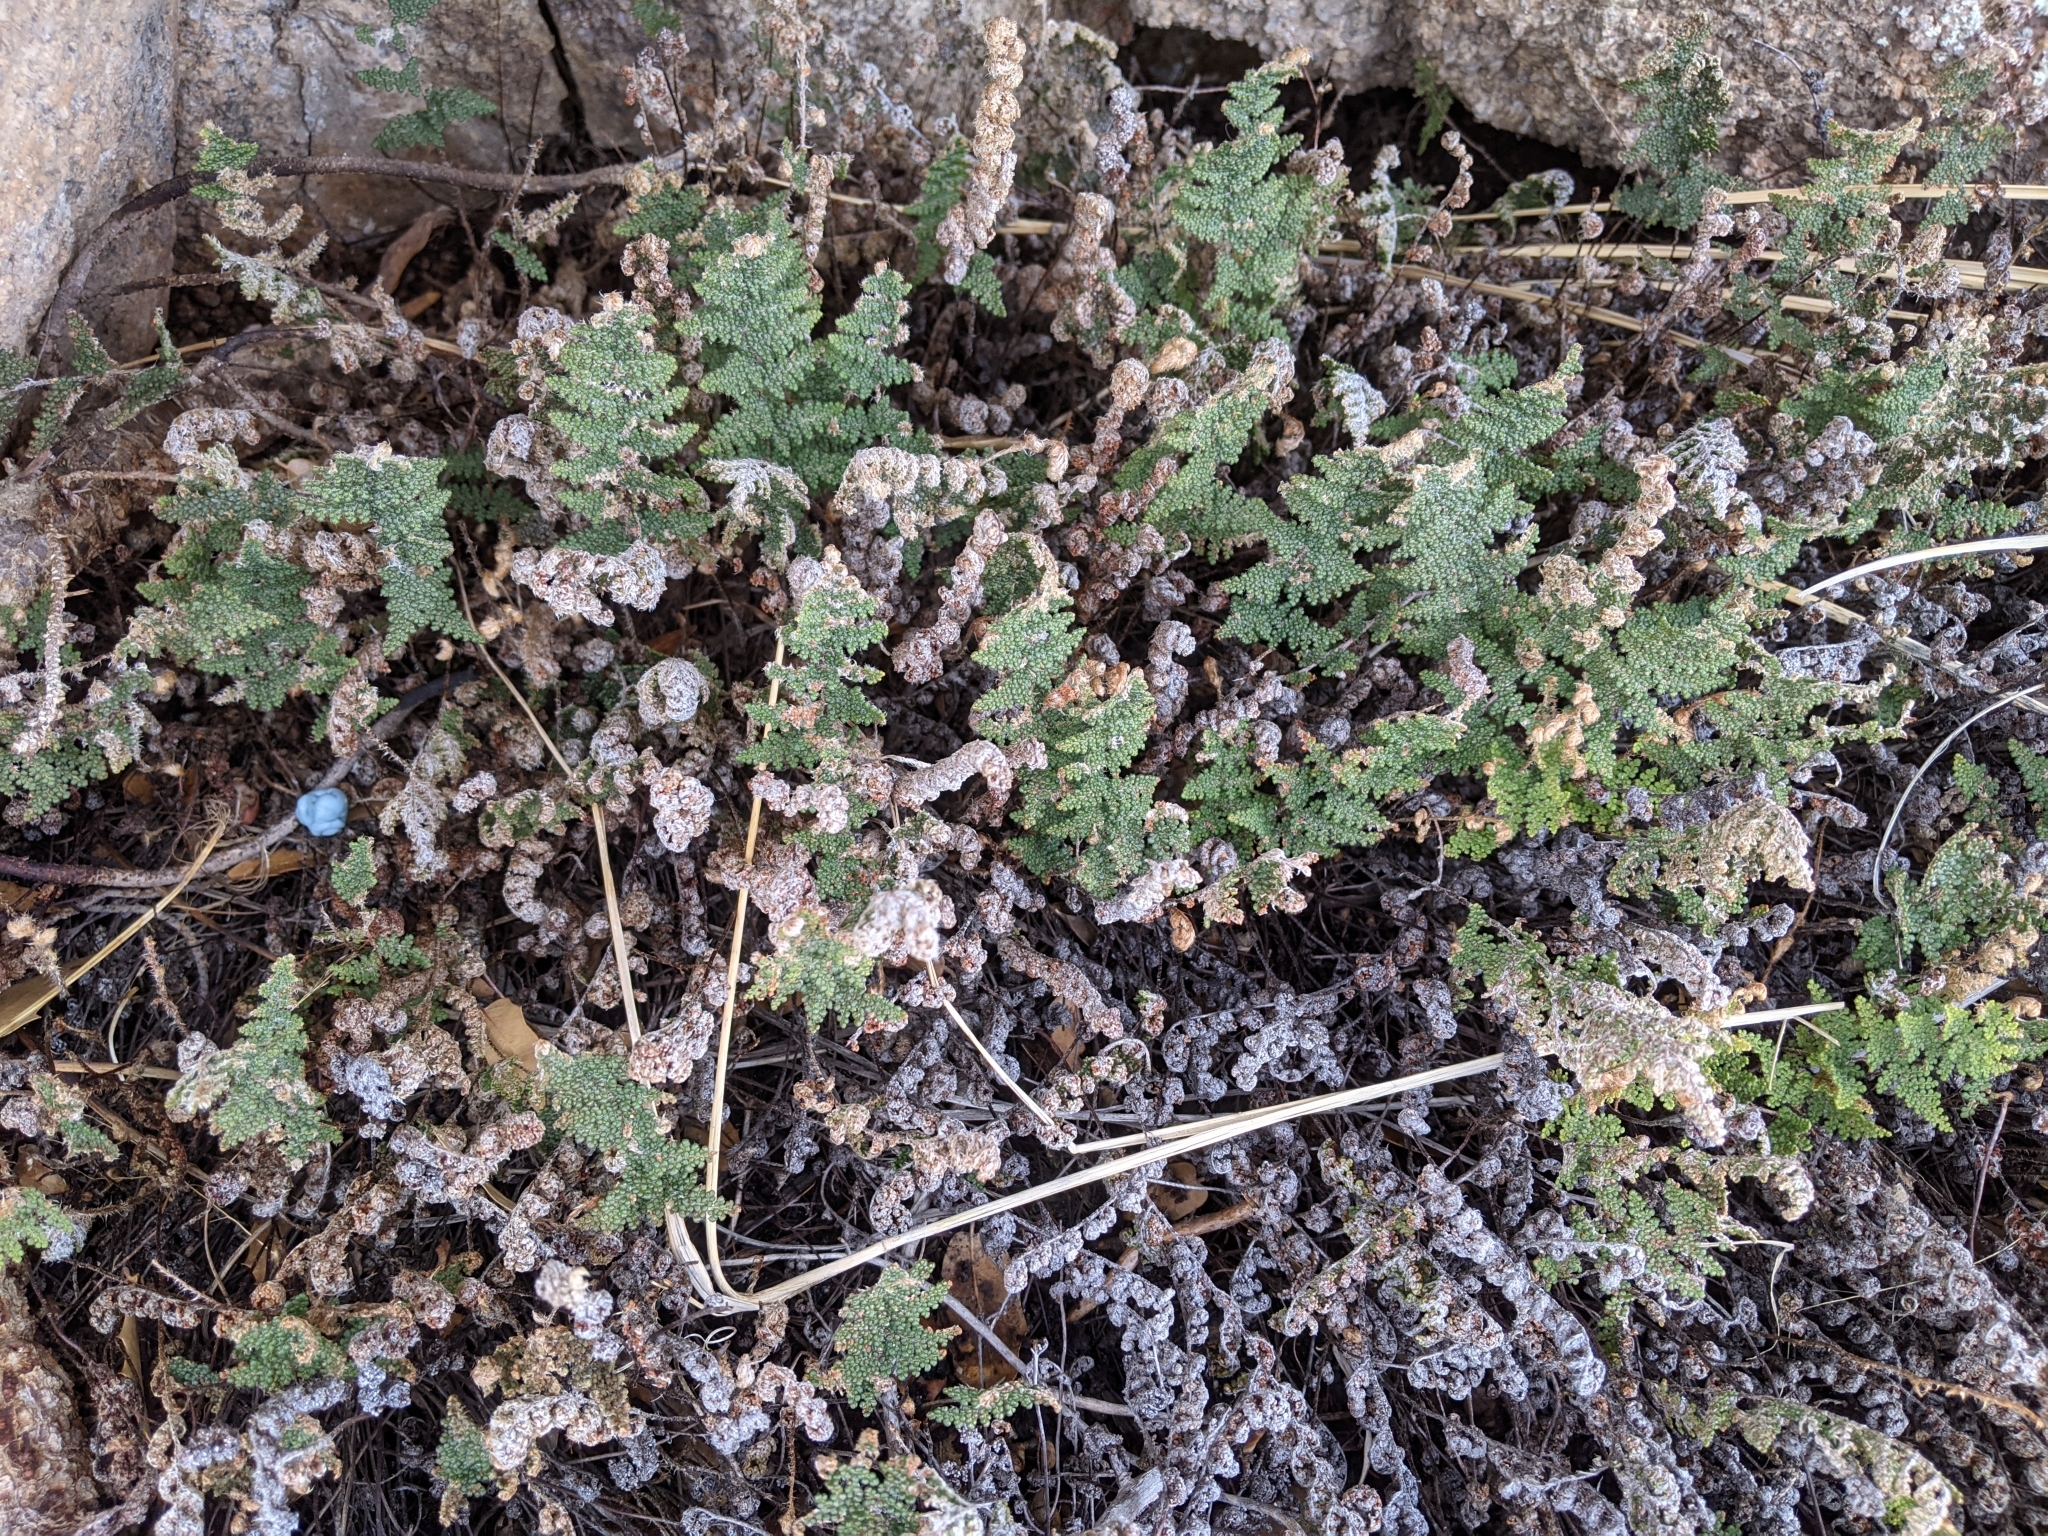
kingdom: Plantae
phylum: Tracheophyta
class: Polypodiopsida
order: Polypodiales
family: Pteridaceae
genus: Myriopteris
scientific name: Myriopteris lindheimeri
